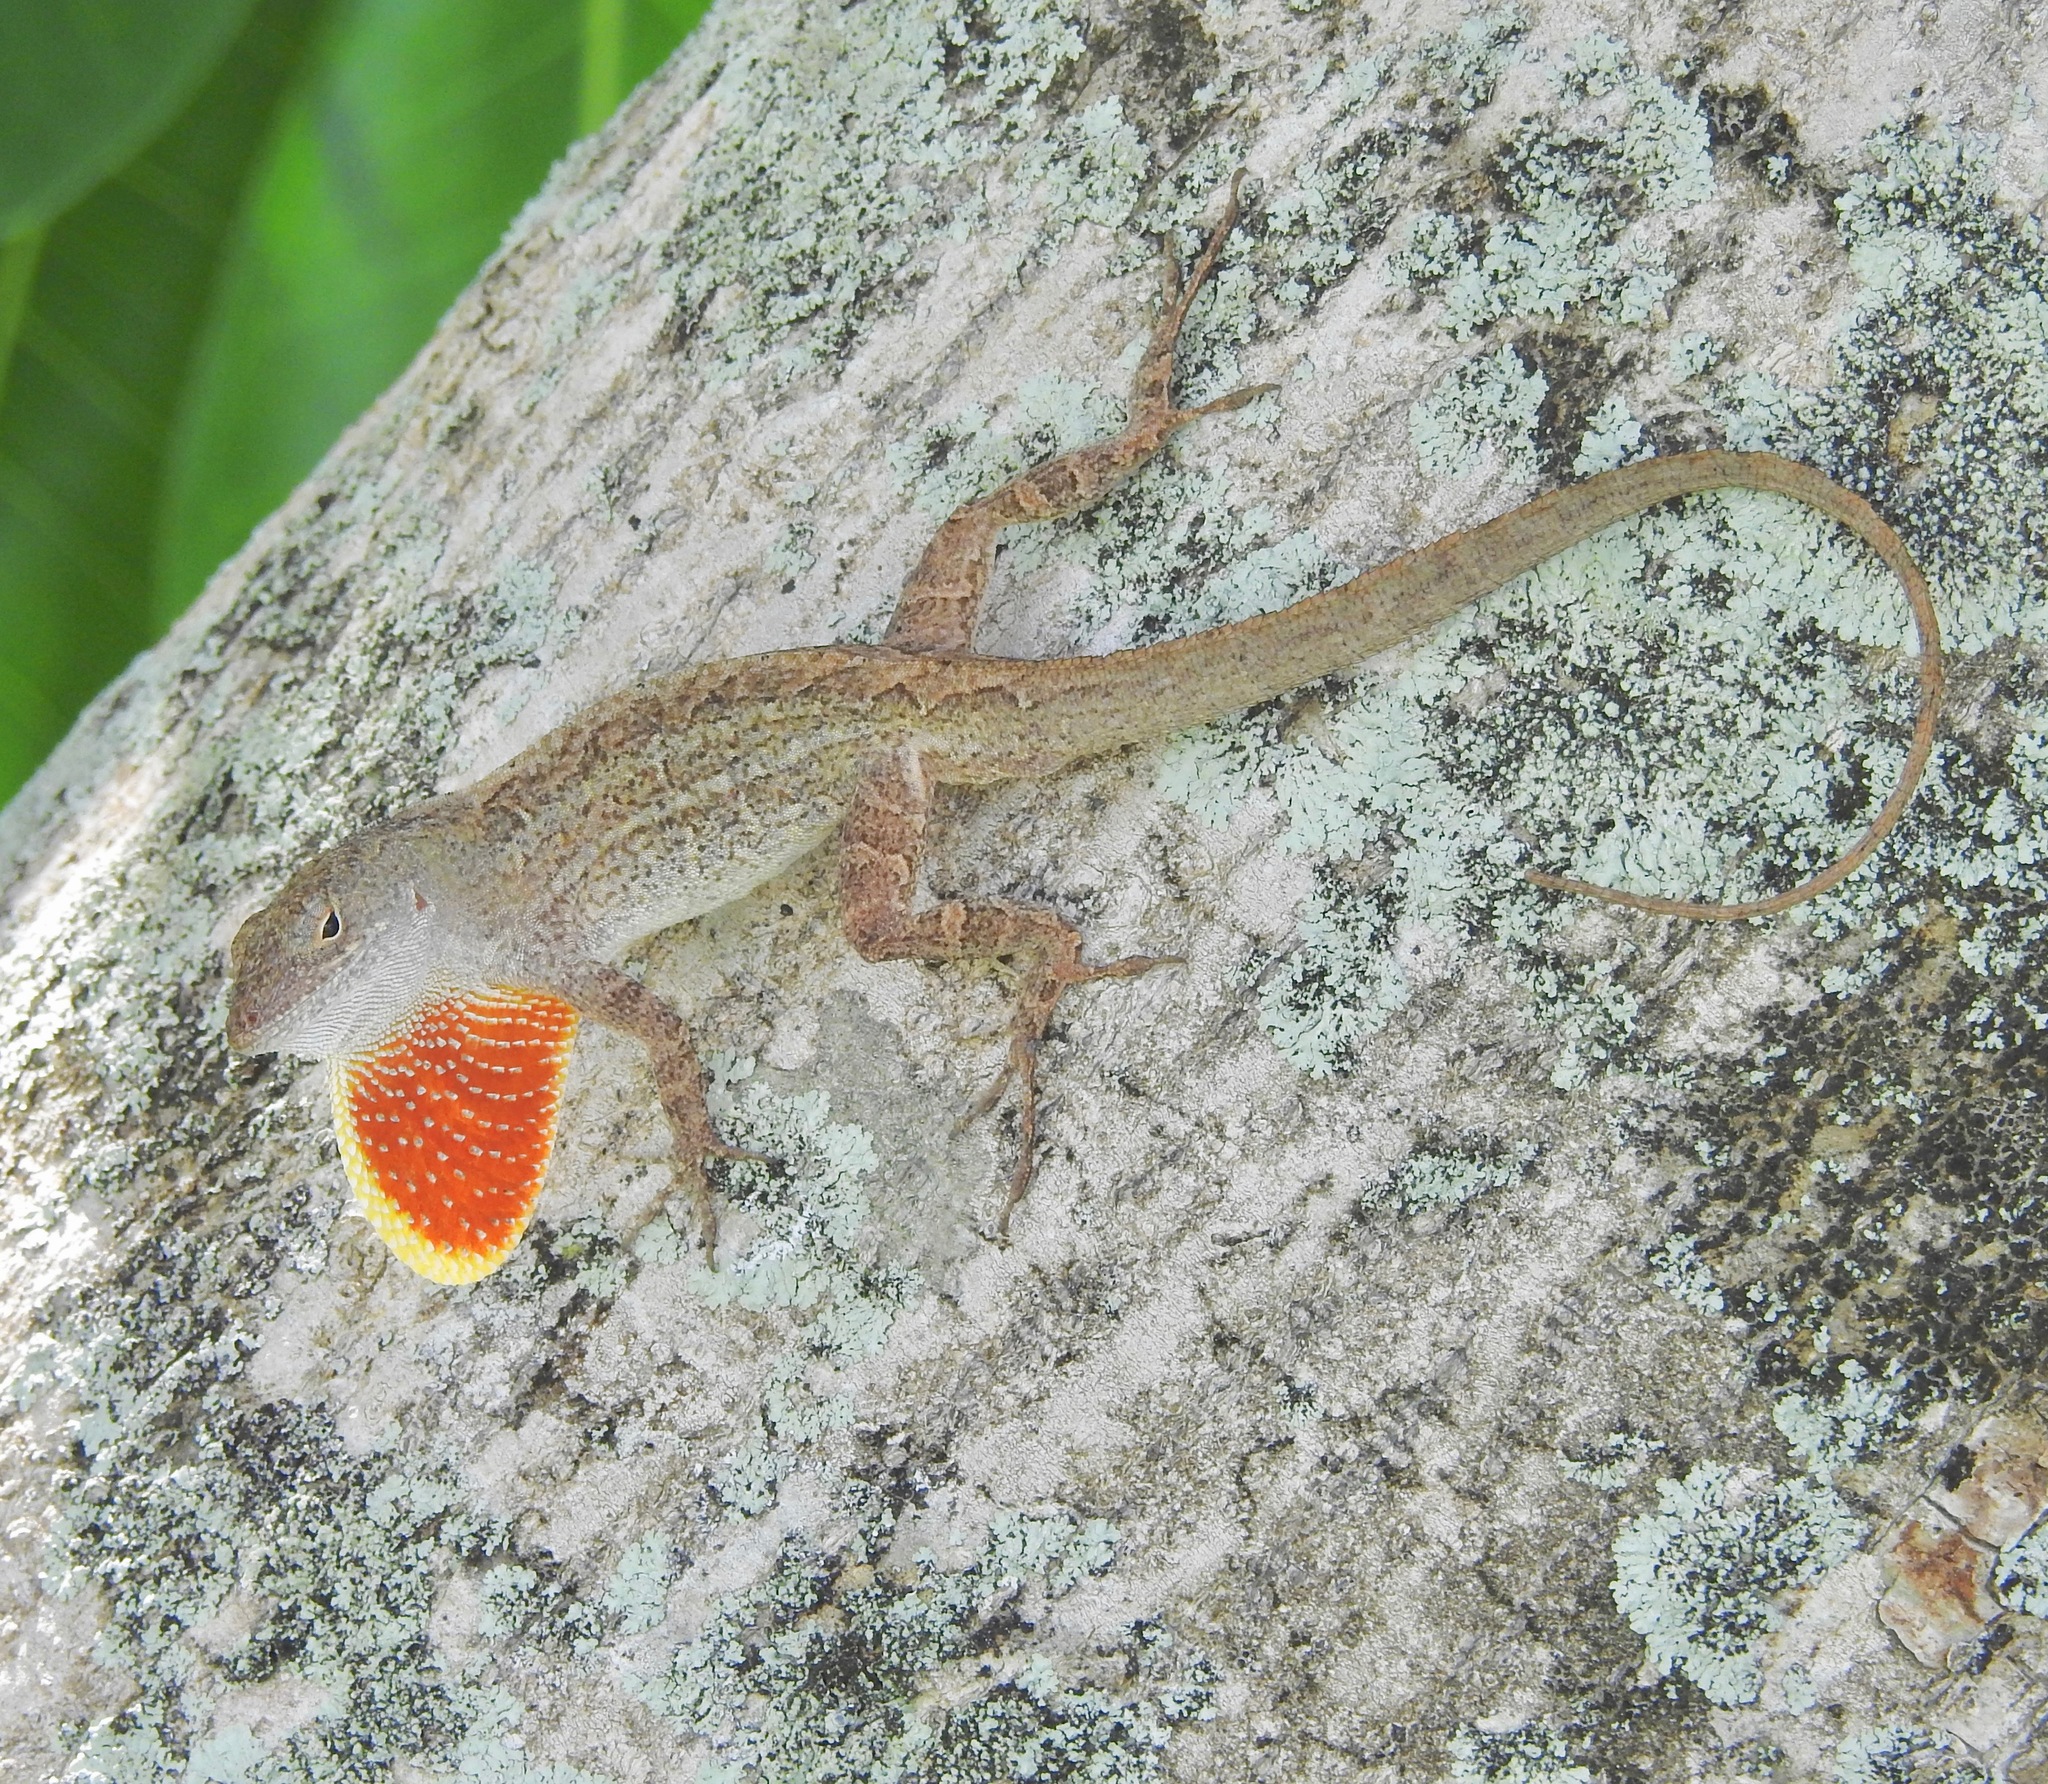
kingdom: Animalia
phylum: Chordata
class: Squamata
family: Dactyloidae
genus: Anolis
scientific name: Anolis sagrei
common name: Brown anole
